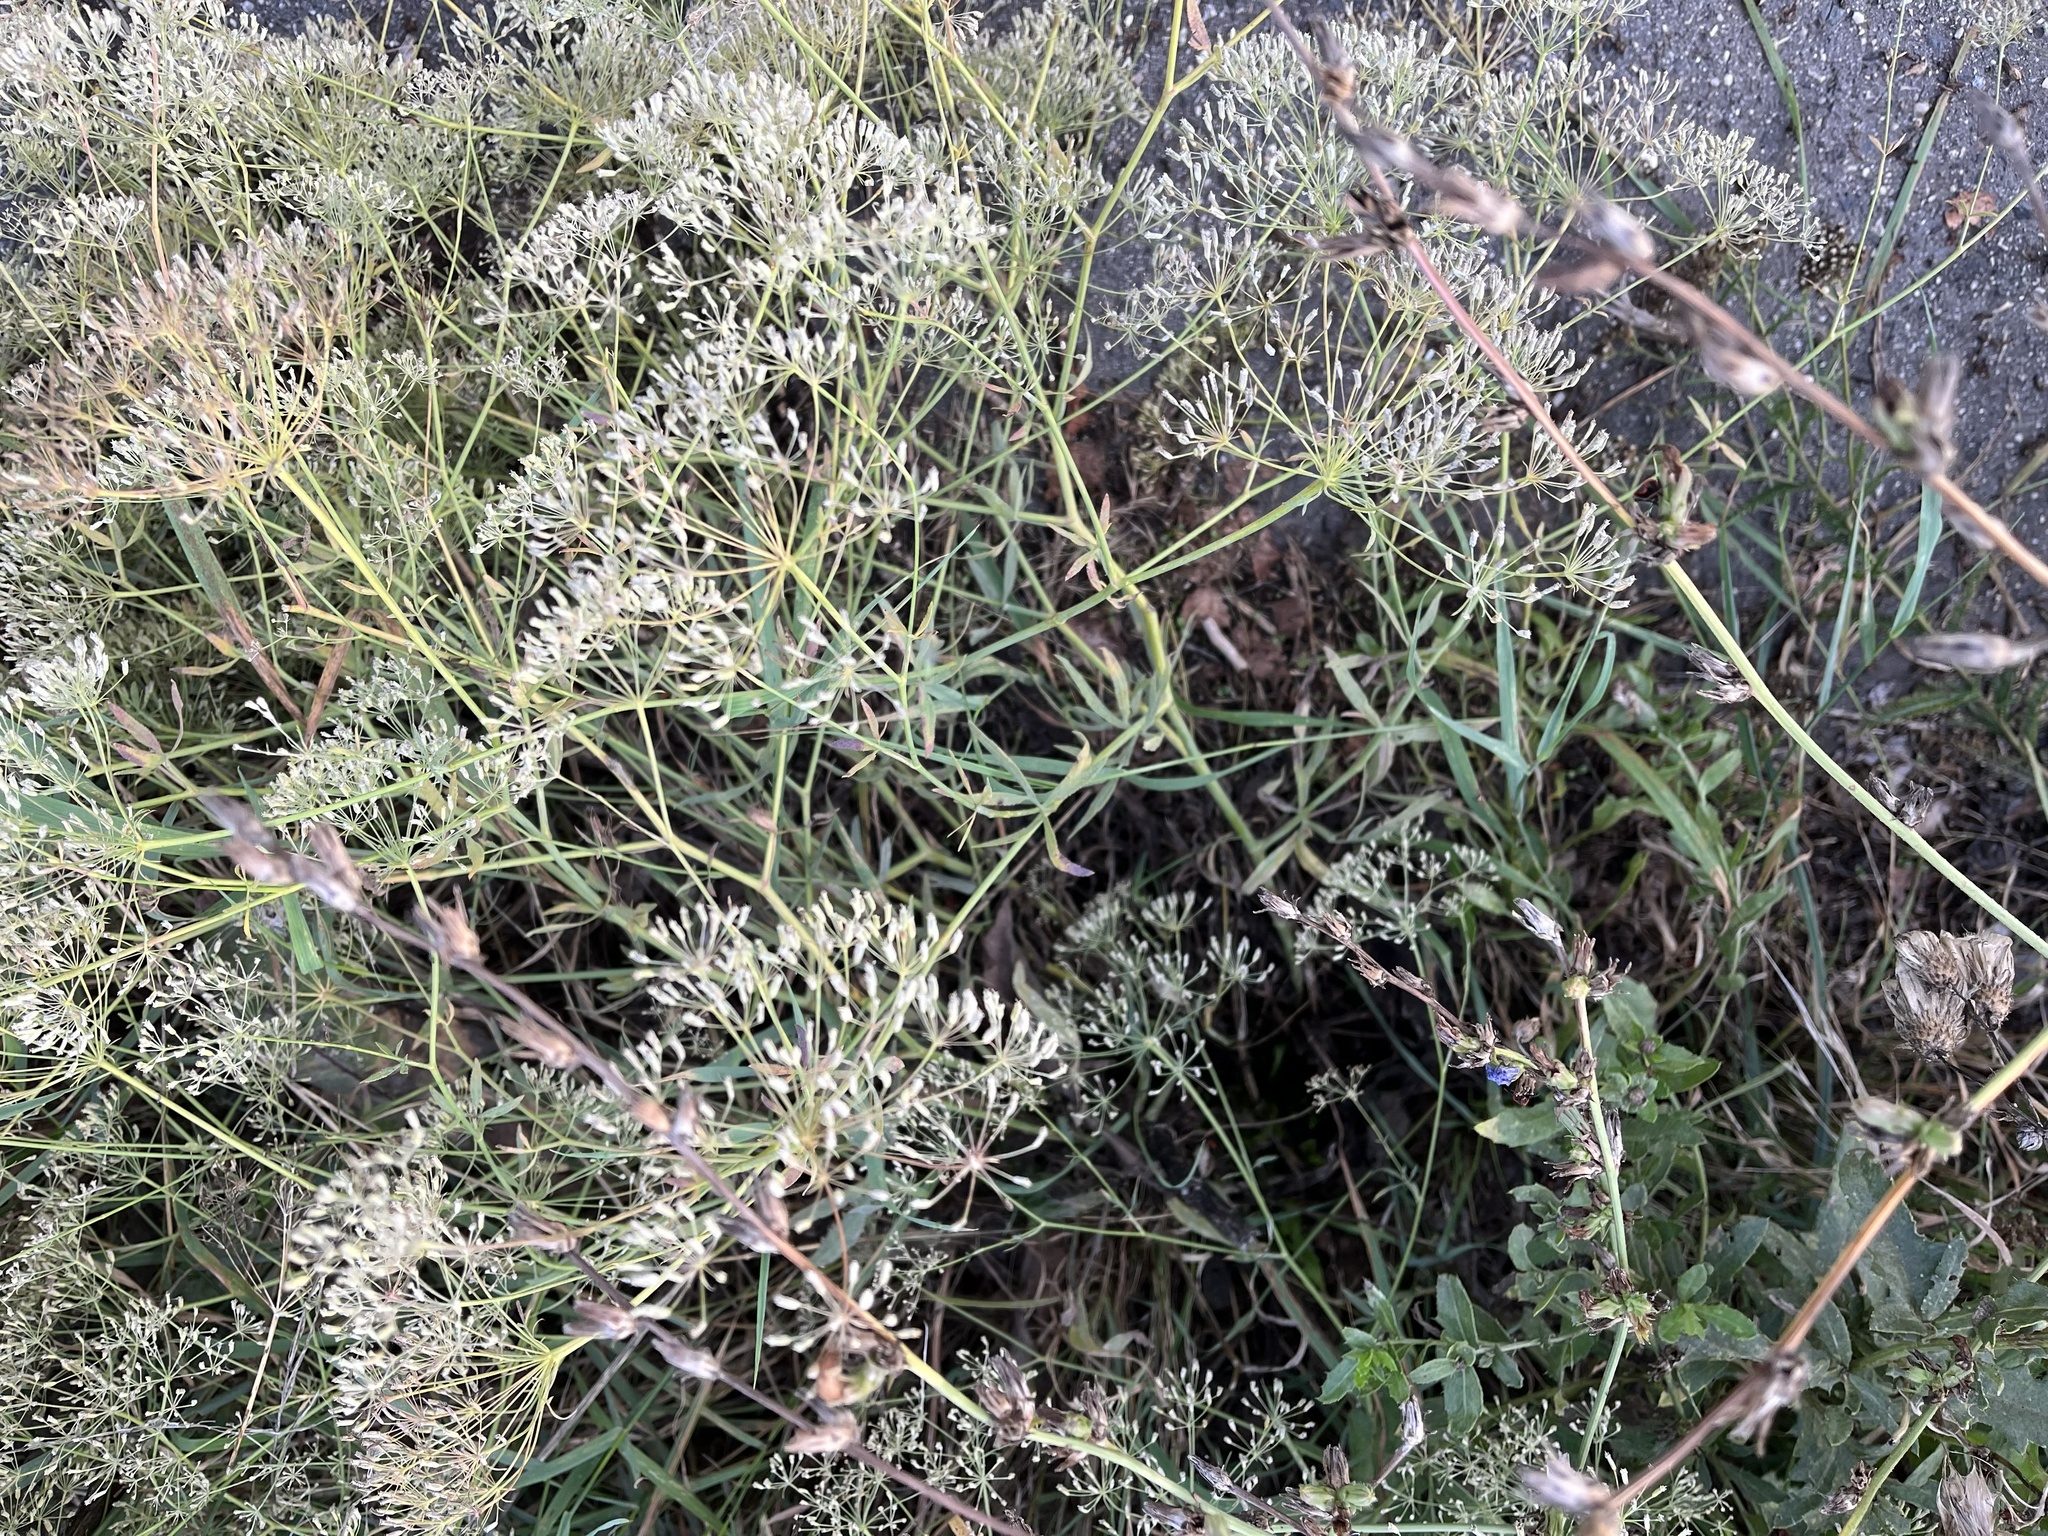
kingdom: Plantae
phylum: Tracheophyta
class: Magnoliopsida
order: Apiales
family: Apiaceae
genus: Falcaria
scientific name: Falcaria vulgaris
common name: Longleaf
